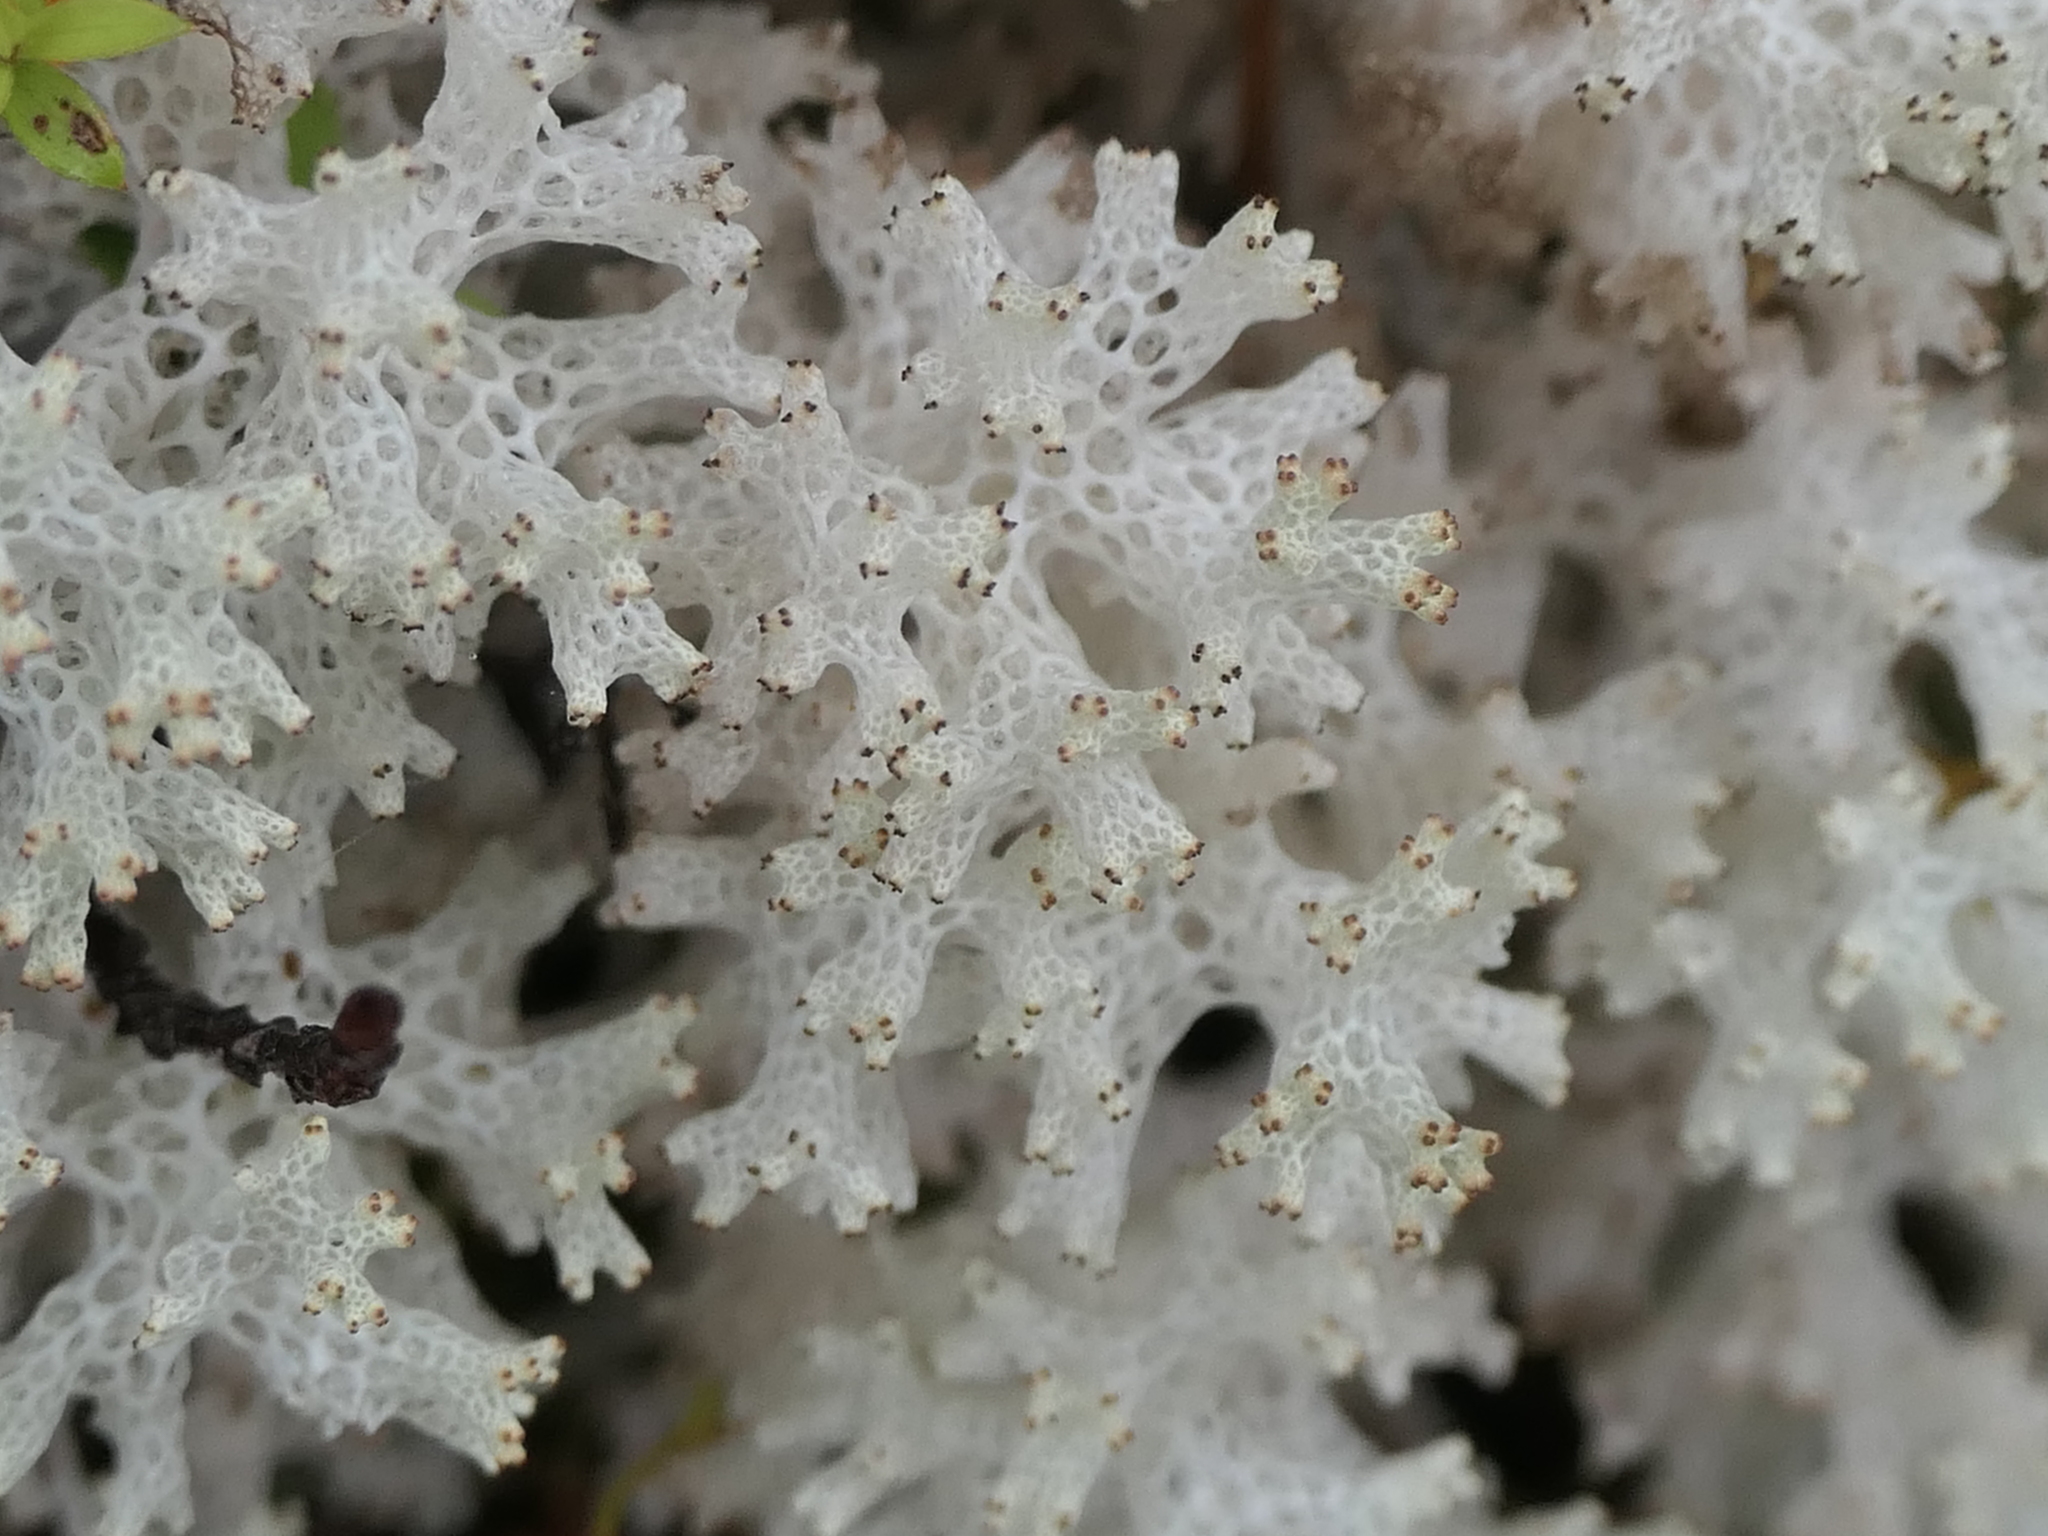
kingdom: Fungi
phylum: Ascomycota
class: Lecanoromycetes
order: Lecanorales
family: Cladoniaceae
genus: Pulchrocladia
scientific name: Pulchrocladia retipora
